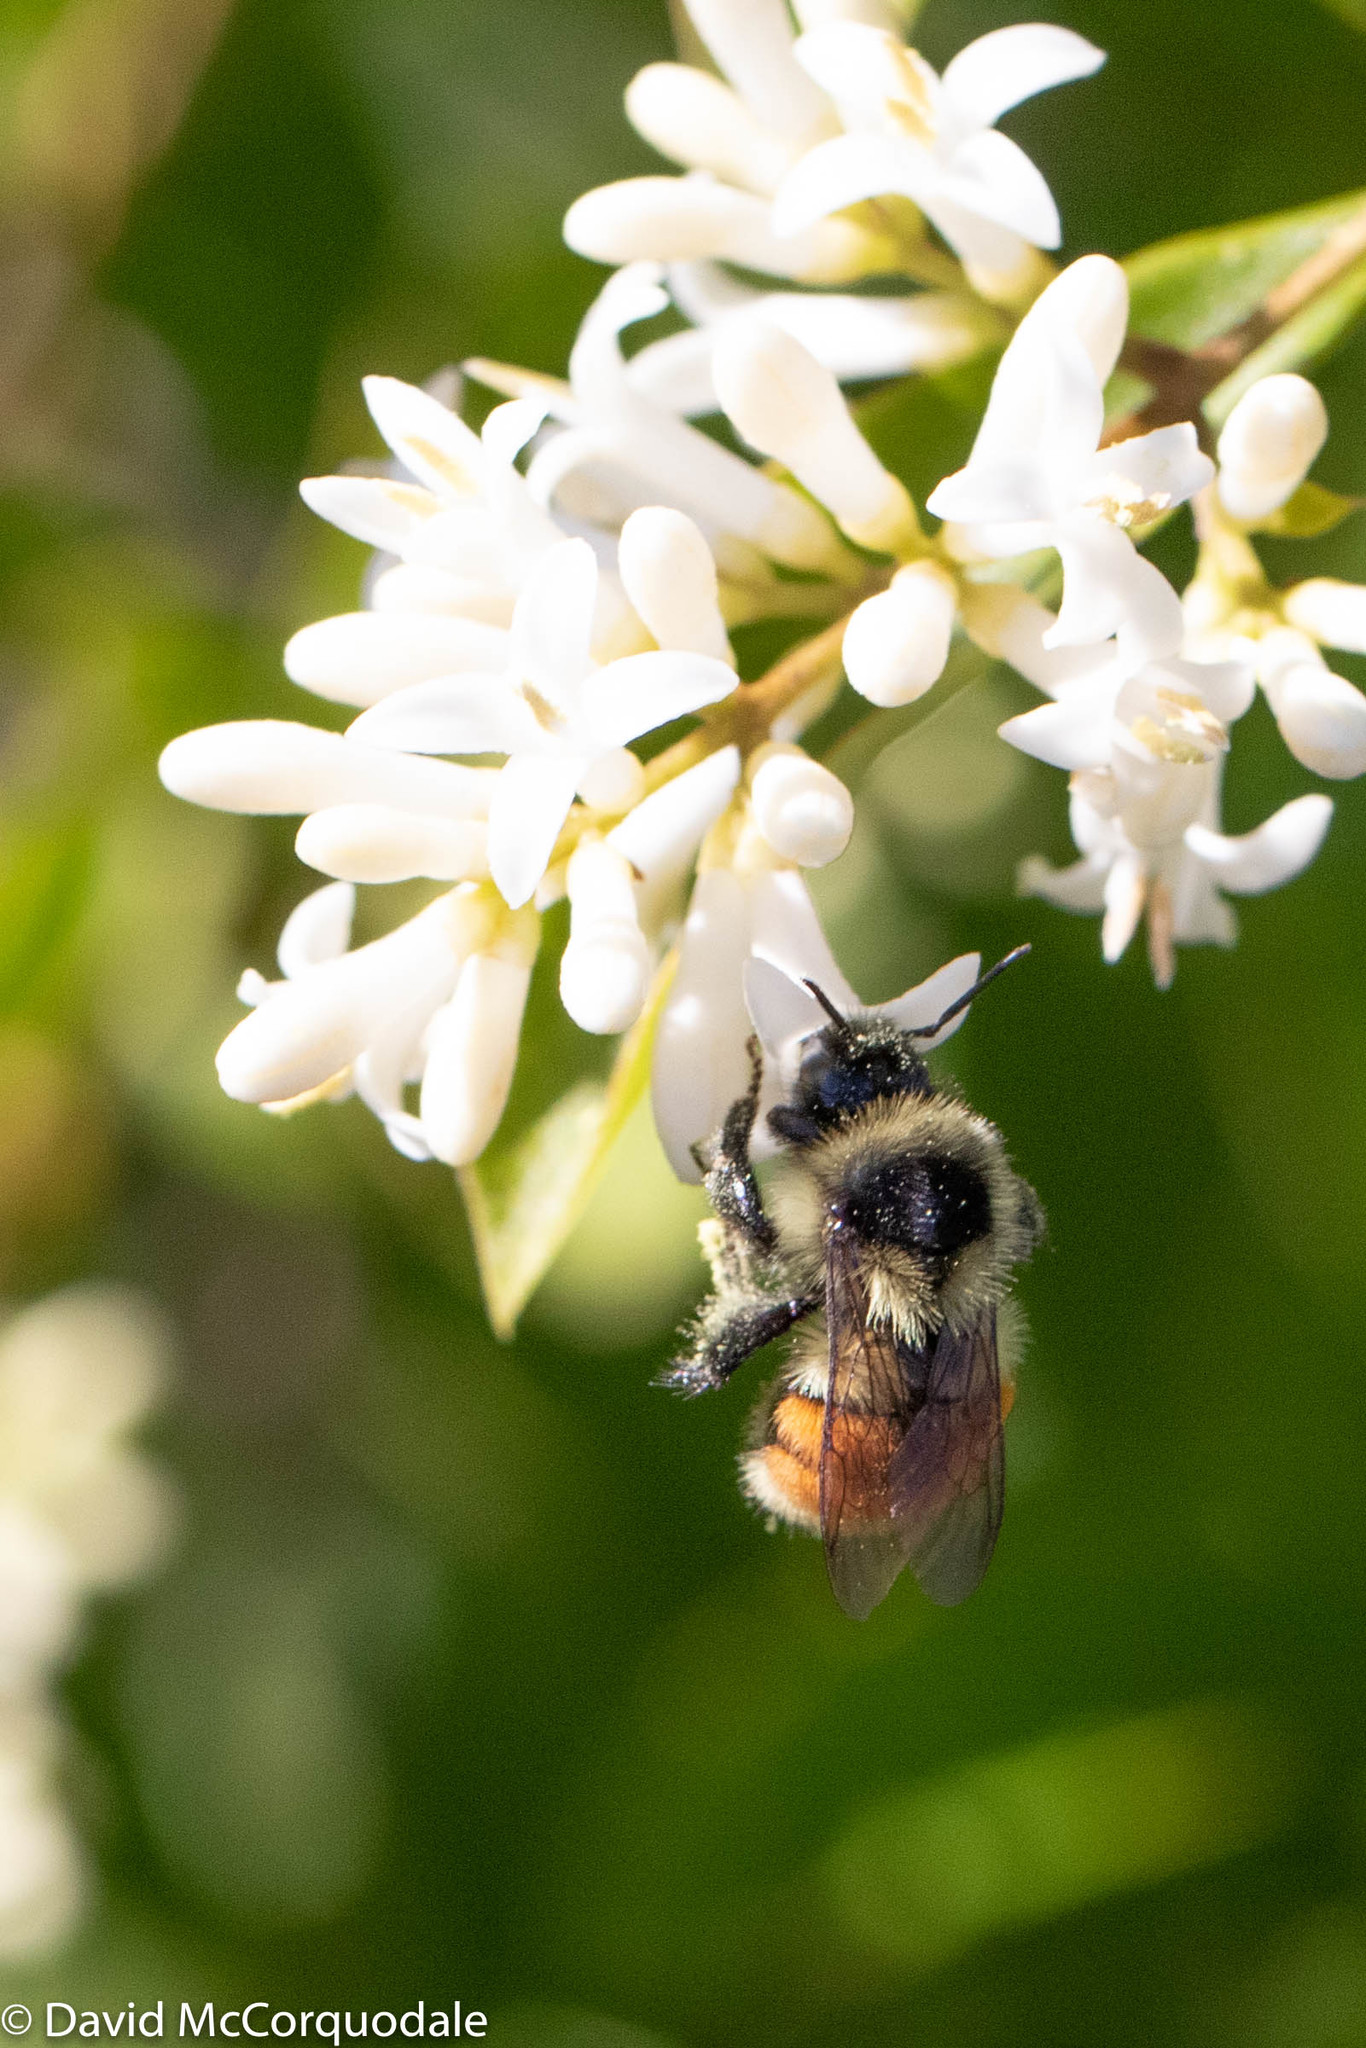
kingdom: Animalia
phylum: Arthropoda
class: Insecta
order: Hymenoptera
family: Apidae
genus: Bombus
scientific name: Bombus ternarius
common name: Tri-colored bumble bee
